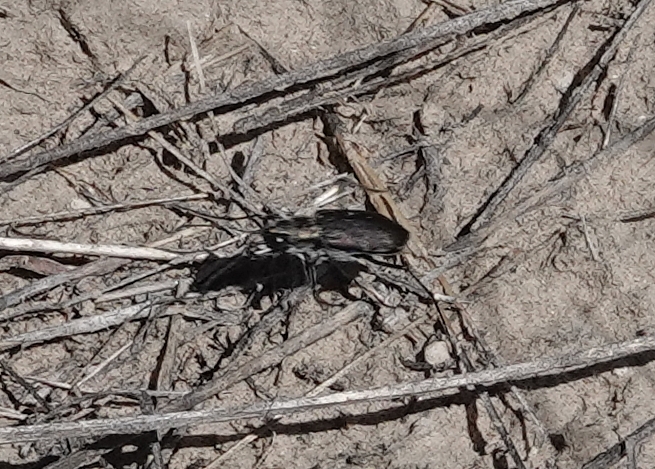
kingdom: Animalia
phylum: Arthropoda
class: Insecta
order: Coleoptera
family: Carabidae
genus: Cicindela
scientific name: Cicindela punctulata
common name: Punctured tiger beetle
